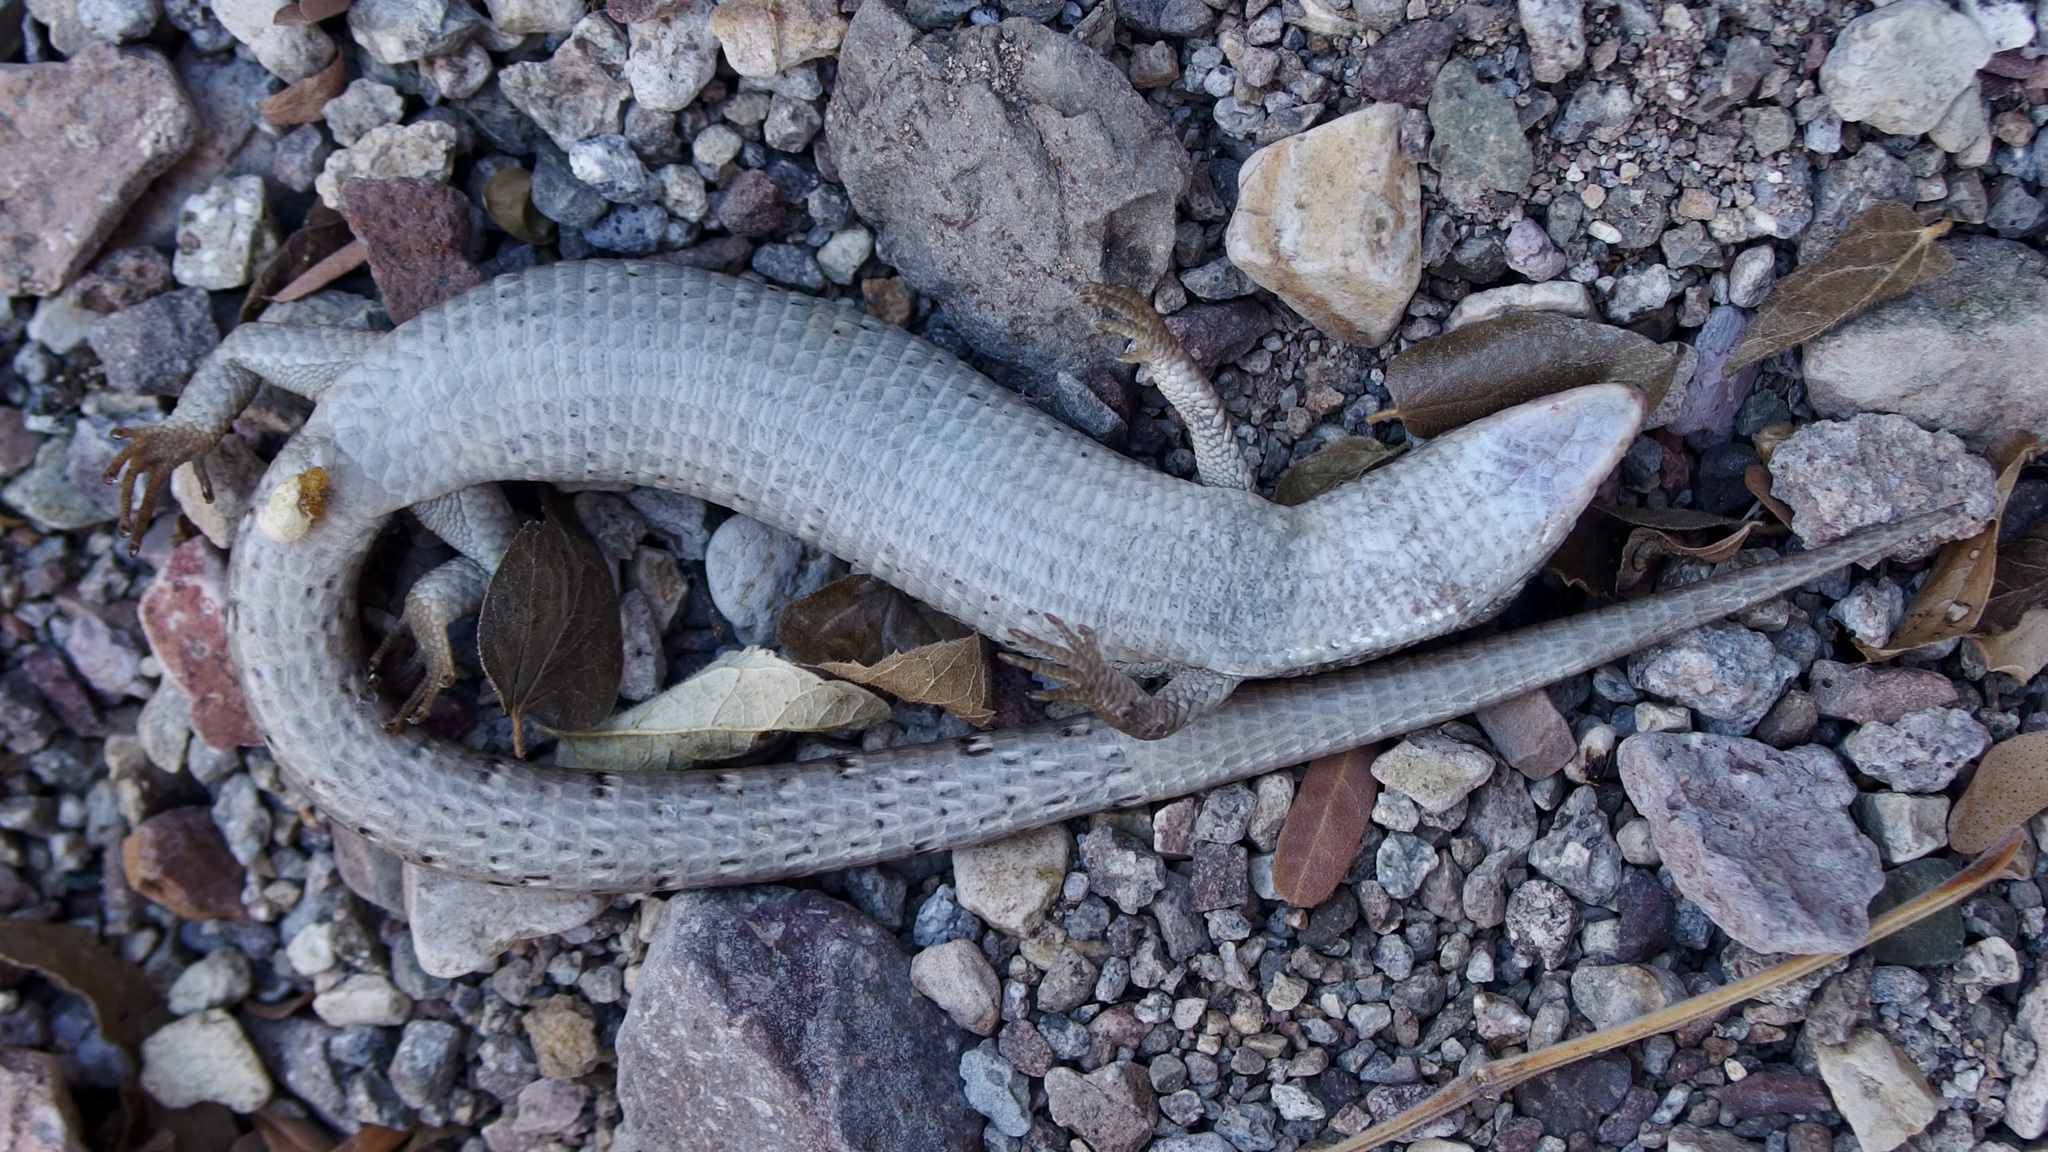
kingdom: Animalia
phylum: Chordata
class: Squamata
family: Anguidae
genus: Elgaria
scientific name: Elgaria kingii
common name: Madrean alligator lizard
